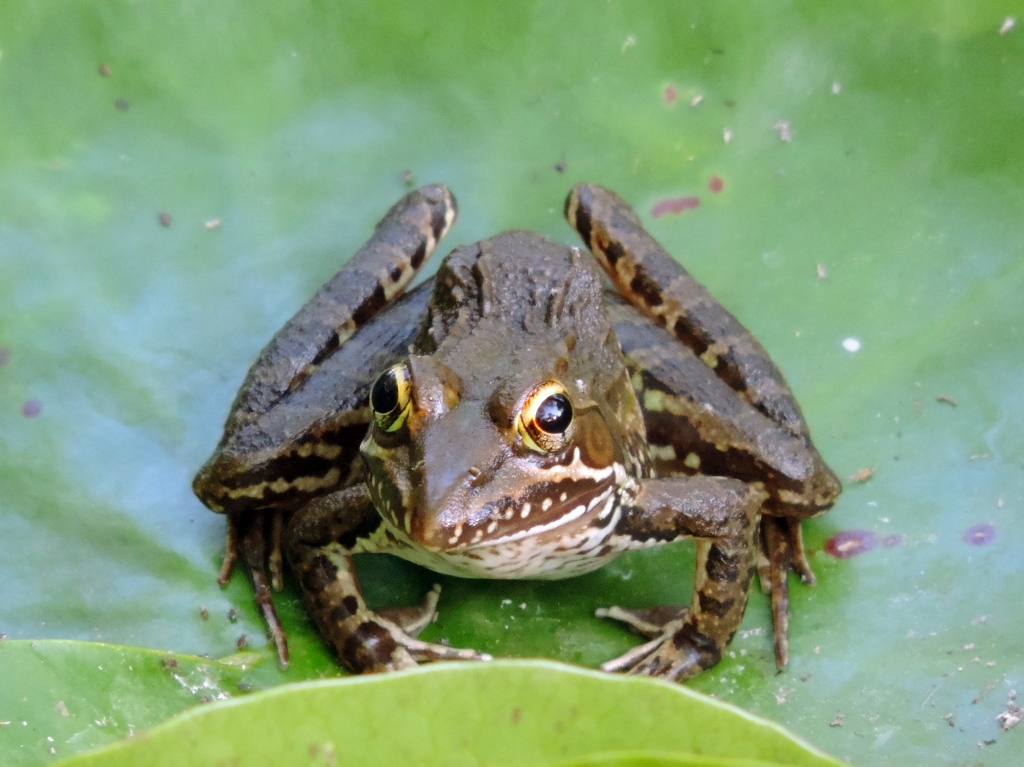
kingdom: Animalia
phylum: Chordata
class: Amphibia
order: Anura
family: Pyxicephalidae
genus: Amietia
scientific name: Amietia delalandii
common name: Delalande's river frog
